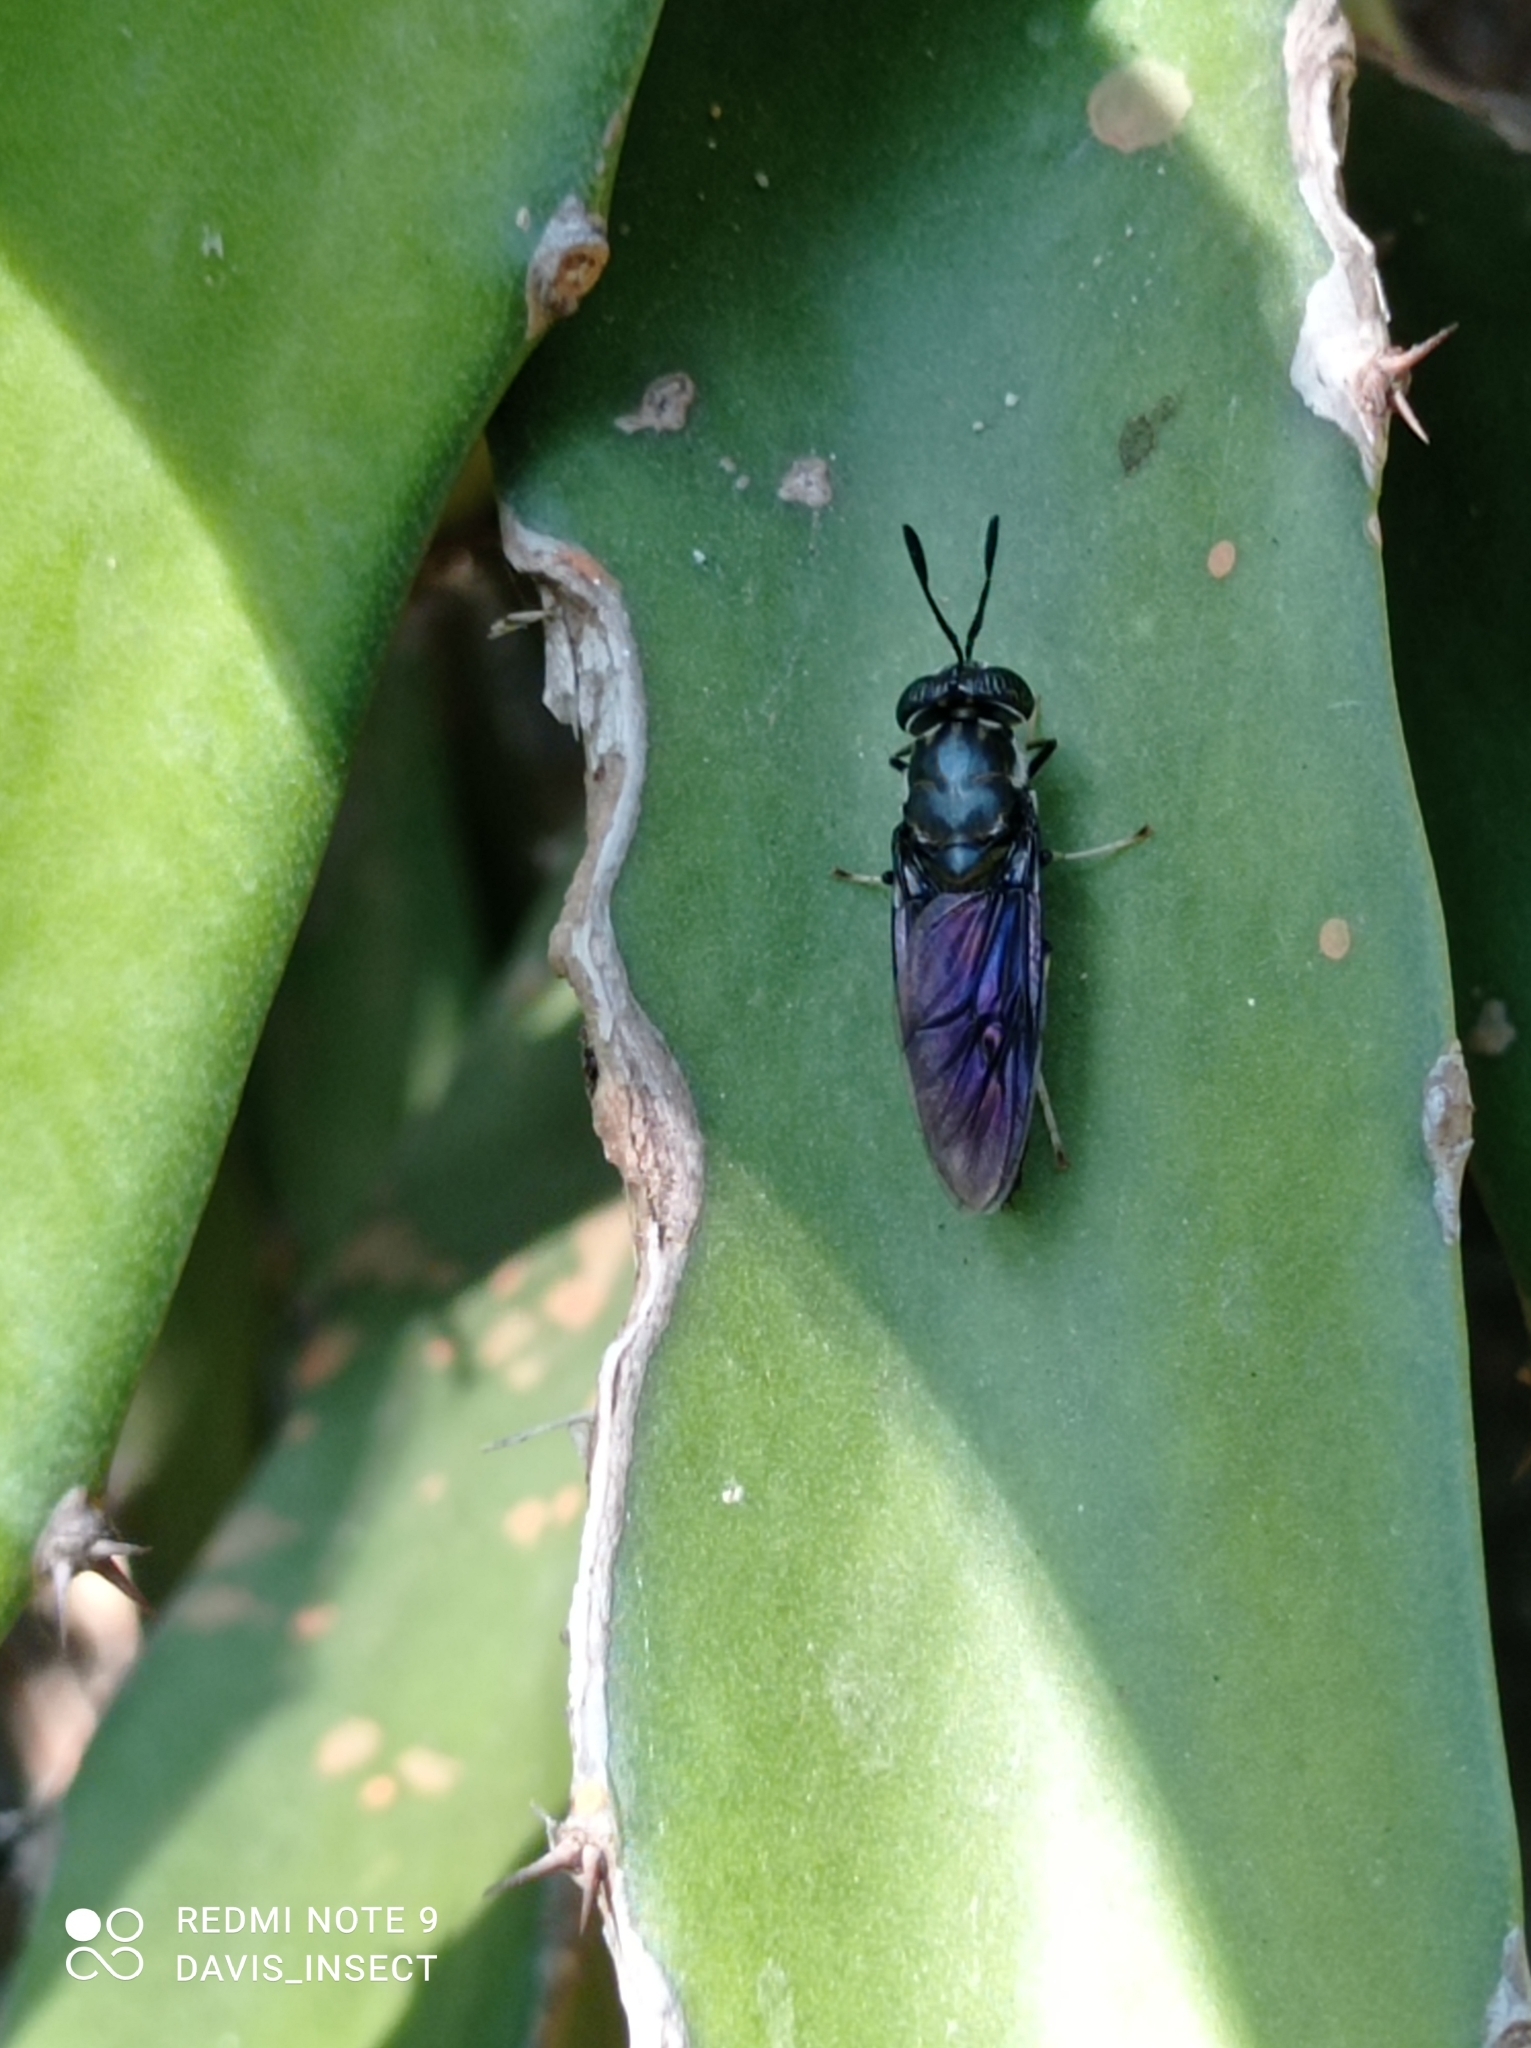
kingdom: Animalia
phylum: Arthropoda
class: Insecta
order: Diptera
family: Stratiomyidae
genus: Hermetia
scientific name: Hermetia illucens
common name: Black soldier fly
